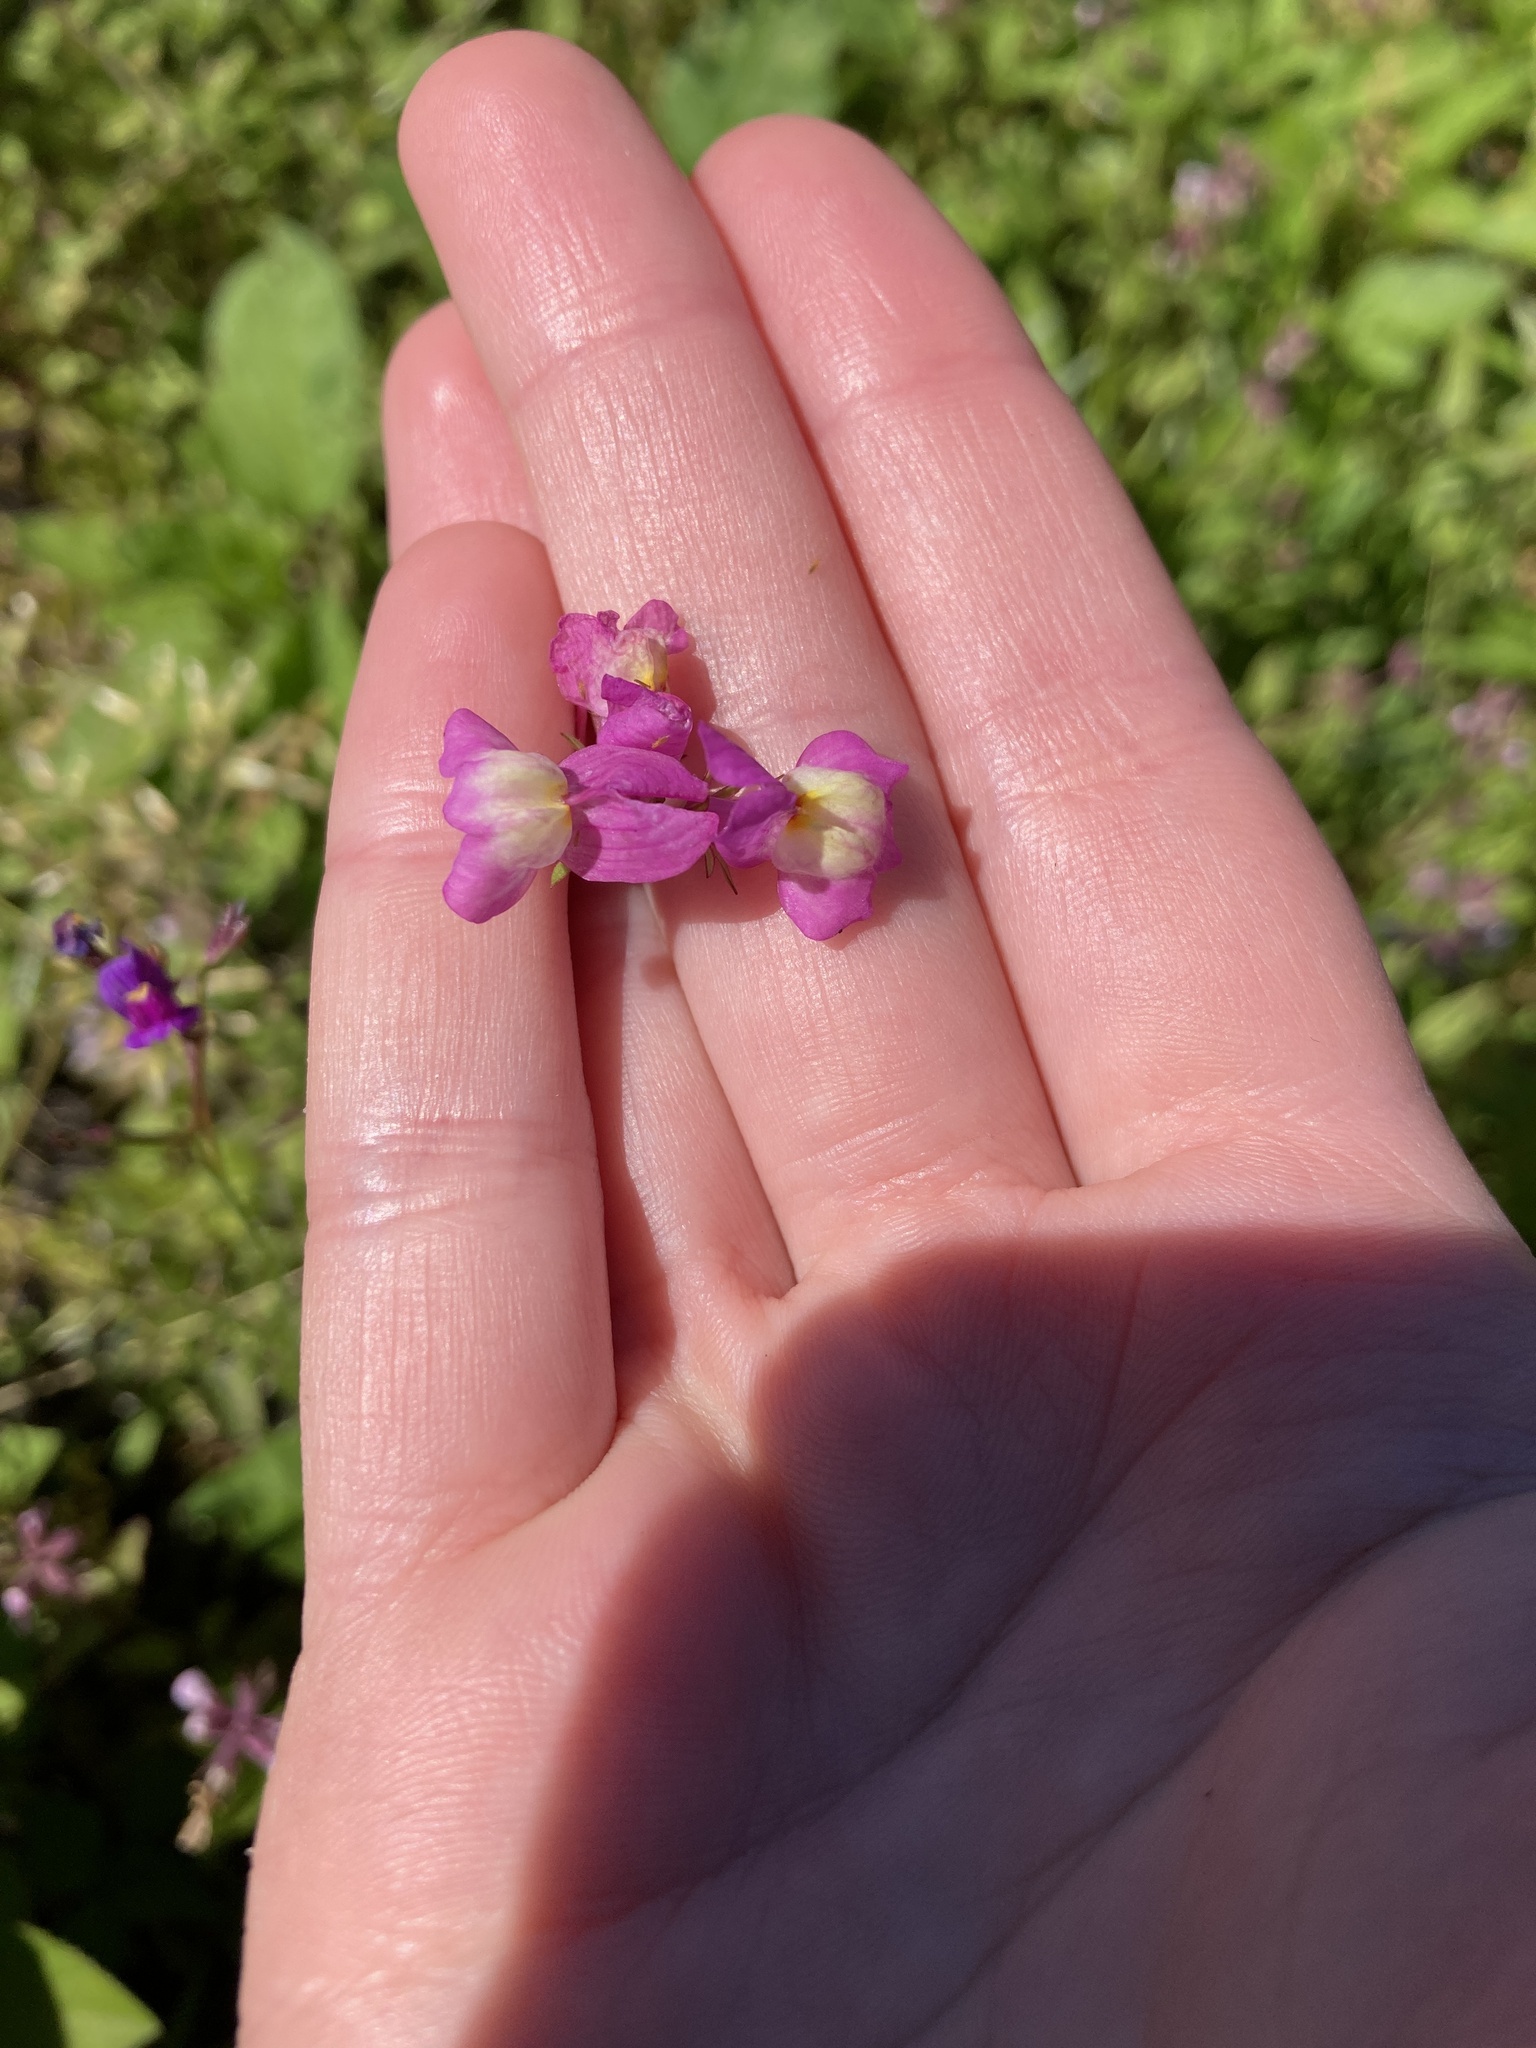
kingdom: Plantae
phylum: Tracheophyta
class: Magnoliopsida
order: Lamiales
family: Plantaginaceae
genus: Linaria
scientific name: Linaria maroccana
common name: Moroccan toadflax
